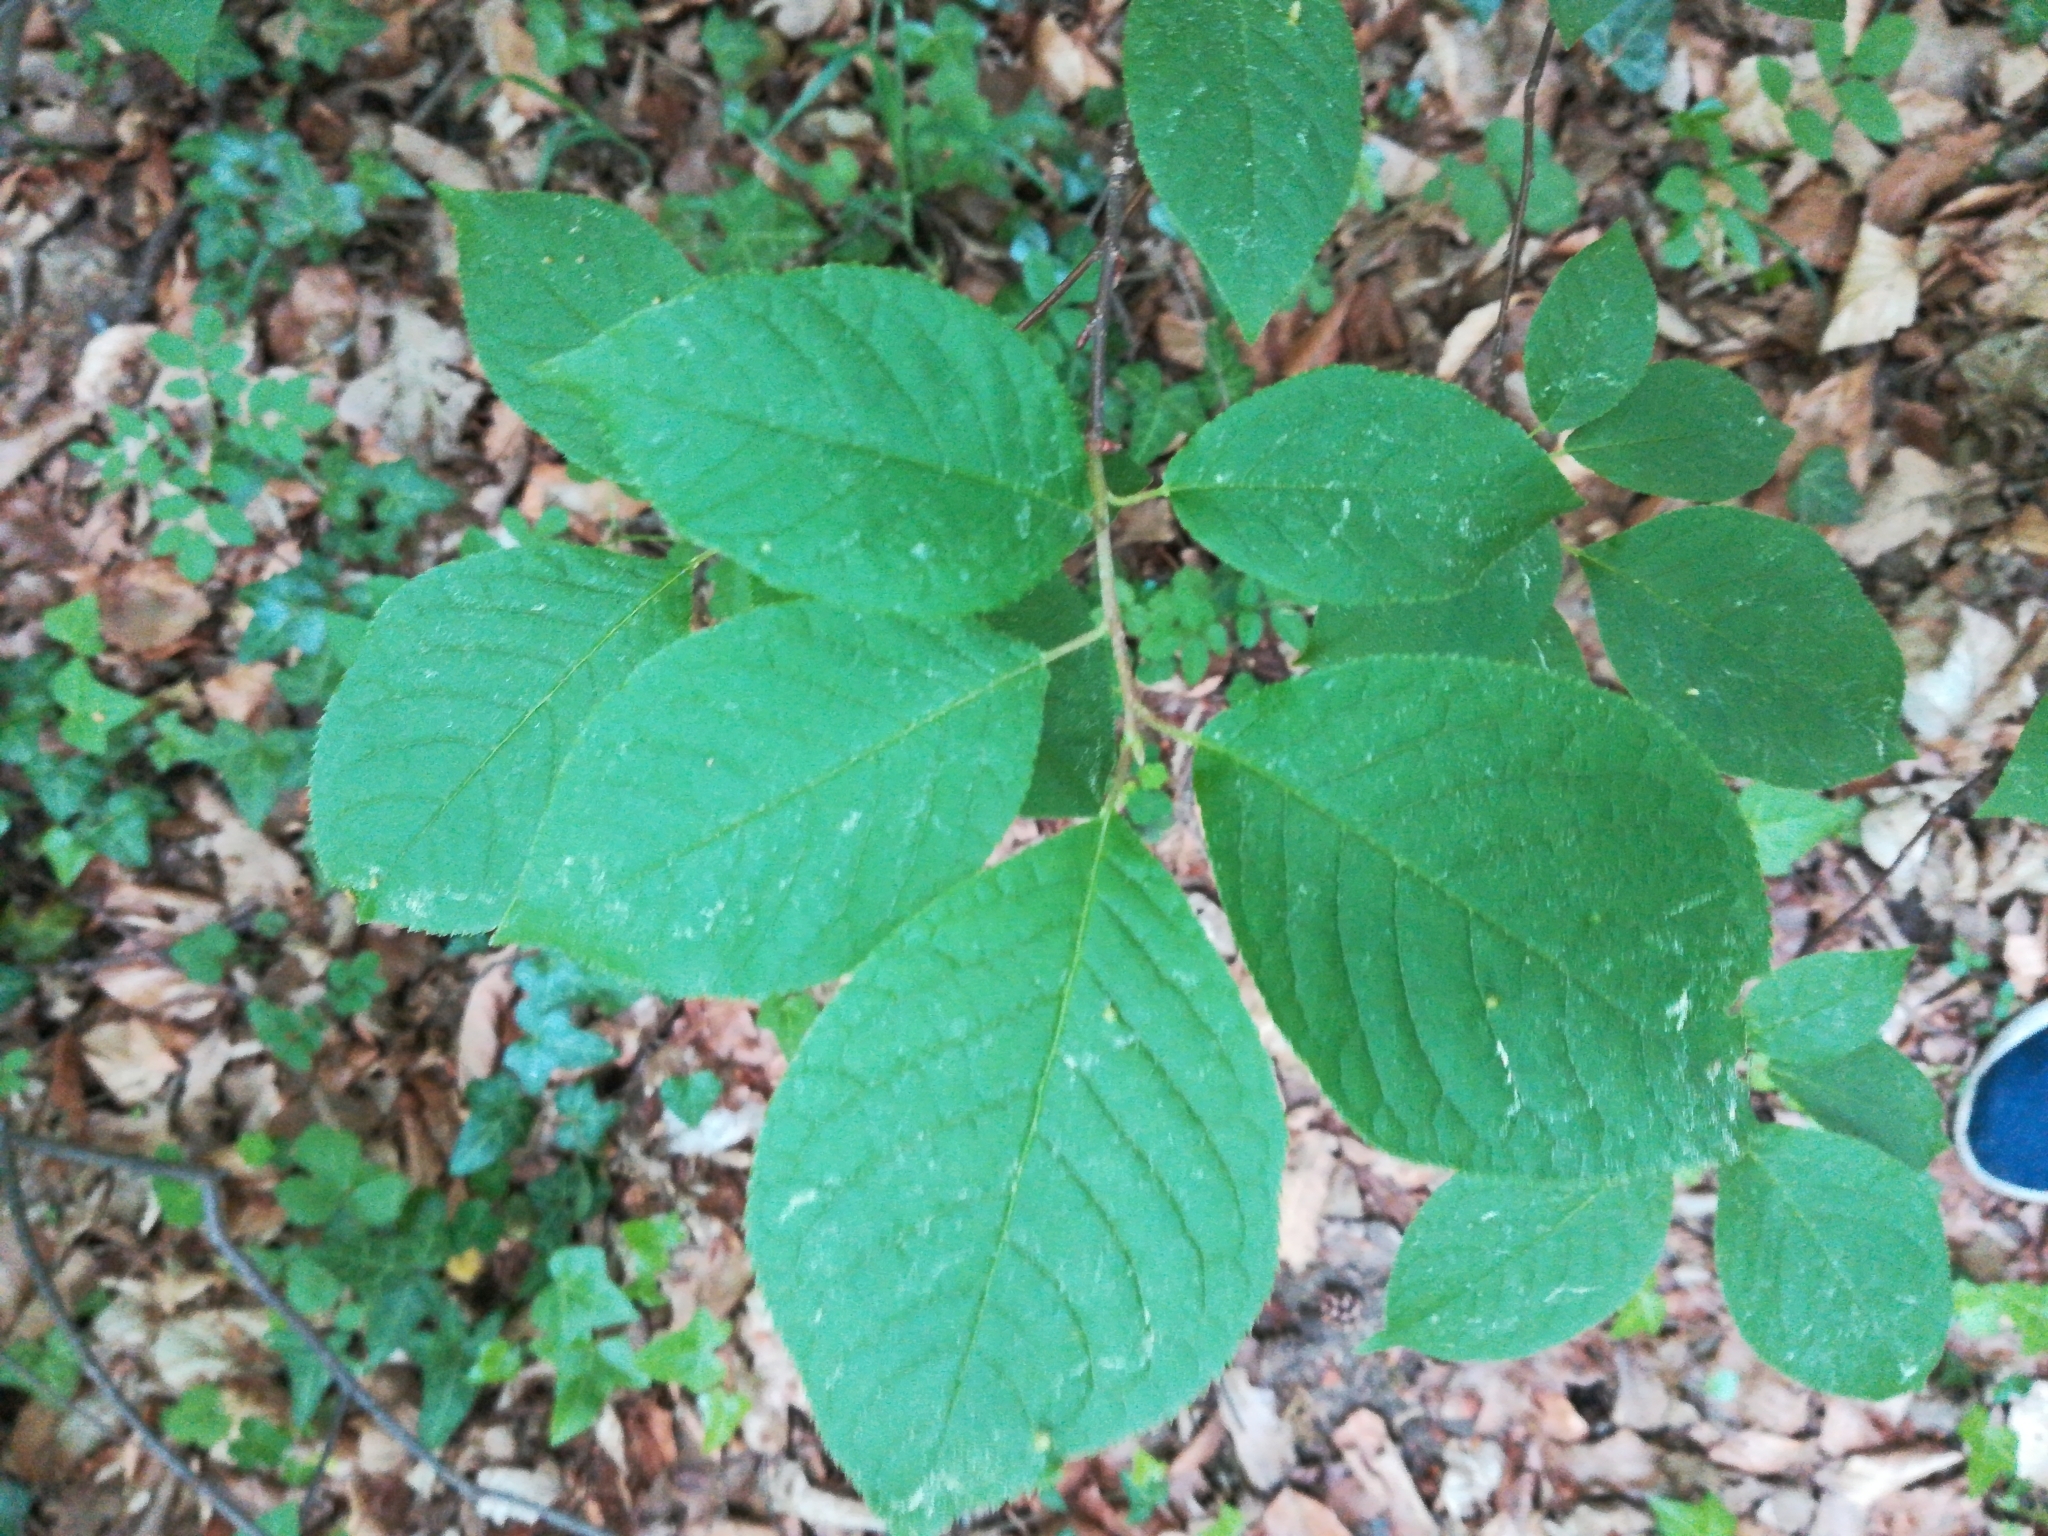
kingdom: Plantae
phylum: Tracheophyta
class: Magnoliopsida
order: Rosales
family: Rosaceae
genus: Prunus
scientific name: Prunus padus
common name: Bird cherry
